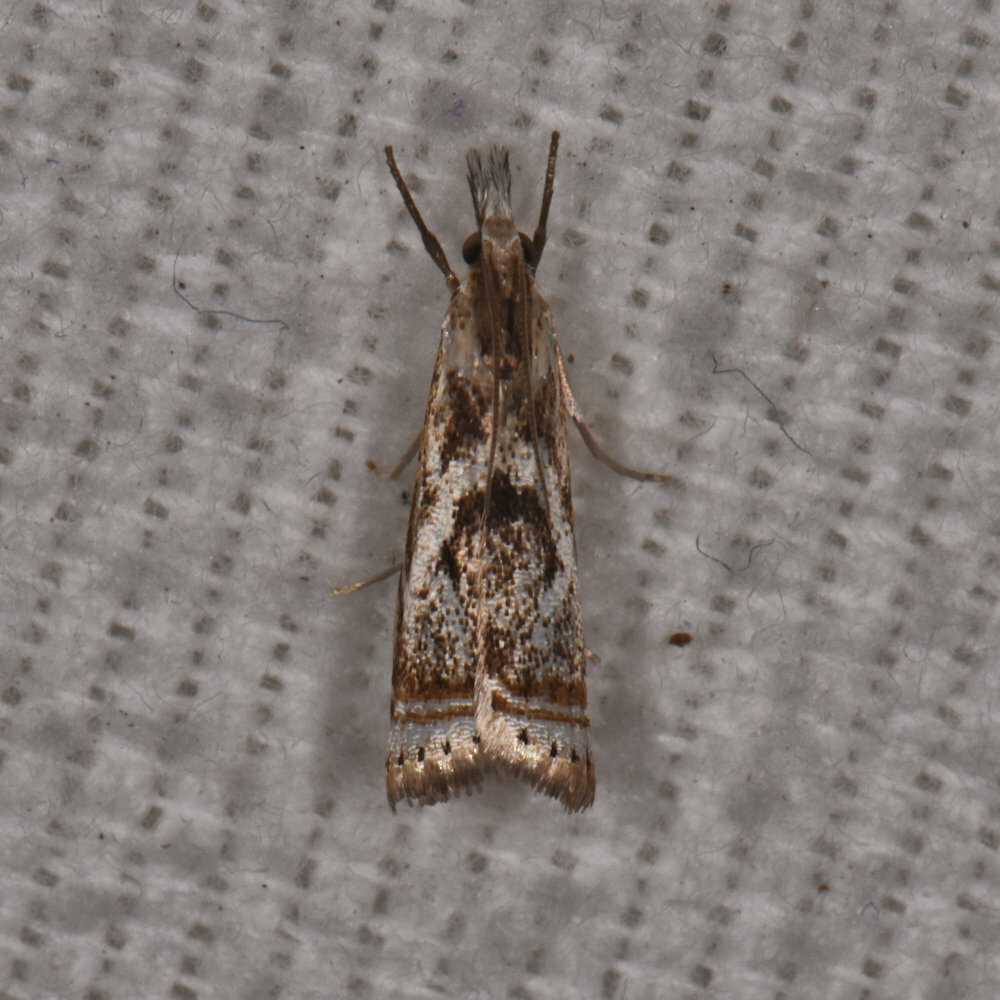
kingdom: Animalia
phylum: Arthropoda
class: Insecta
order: Lepidoptera
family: Crambidae
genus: Microcrambus
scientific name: Microcrambus elegans
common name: Elegant grass-veneer
